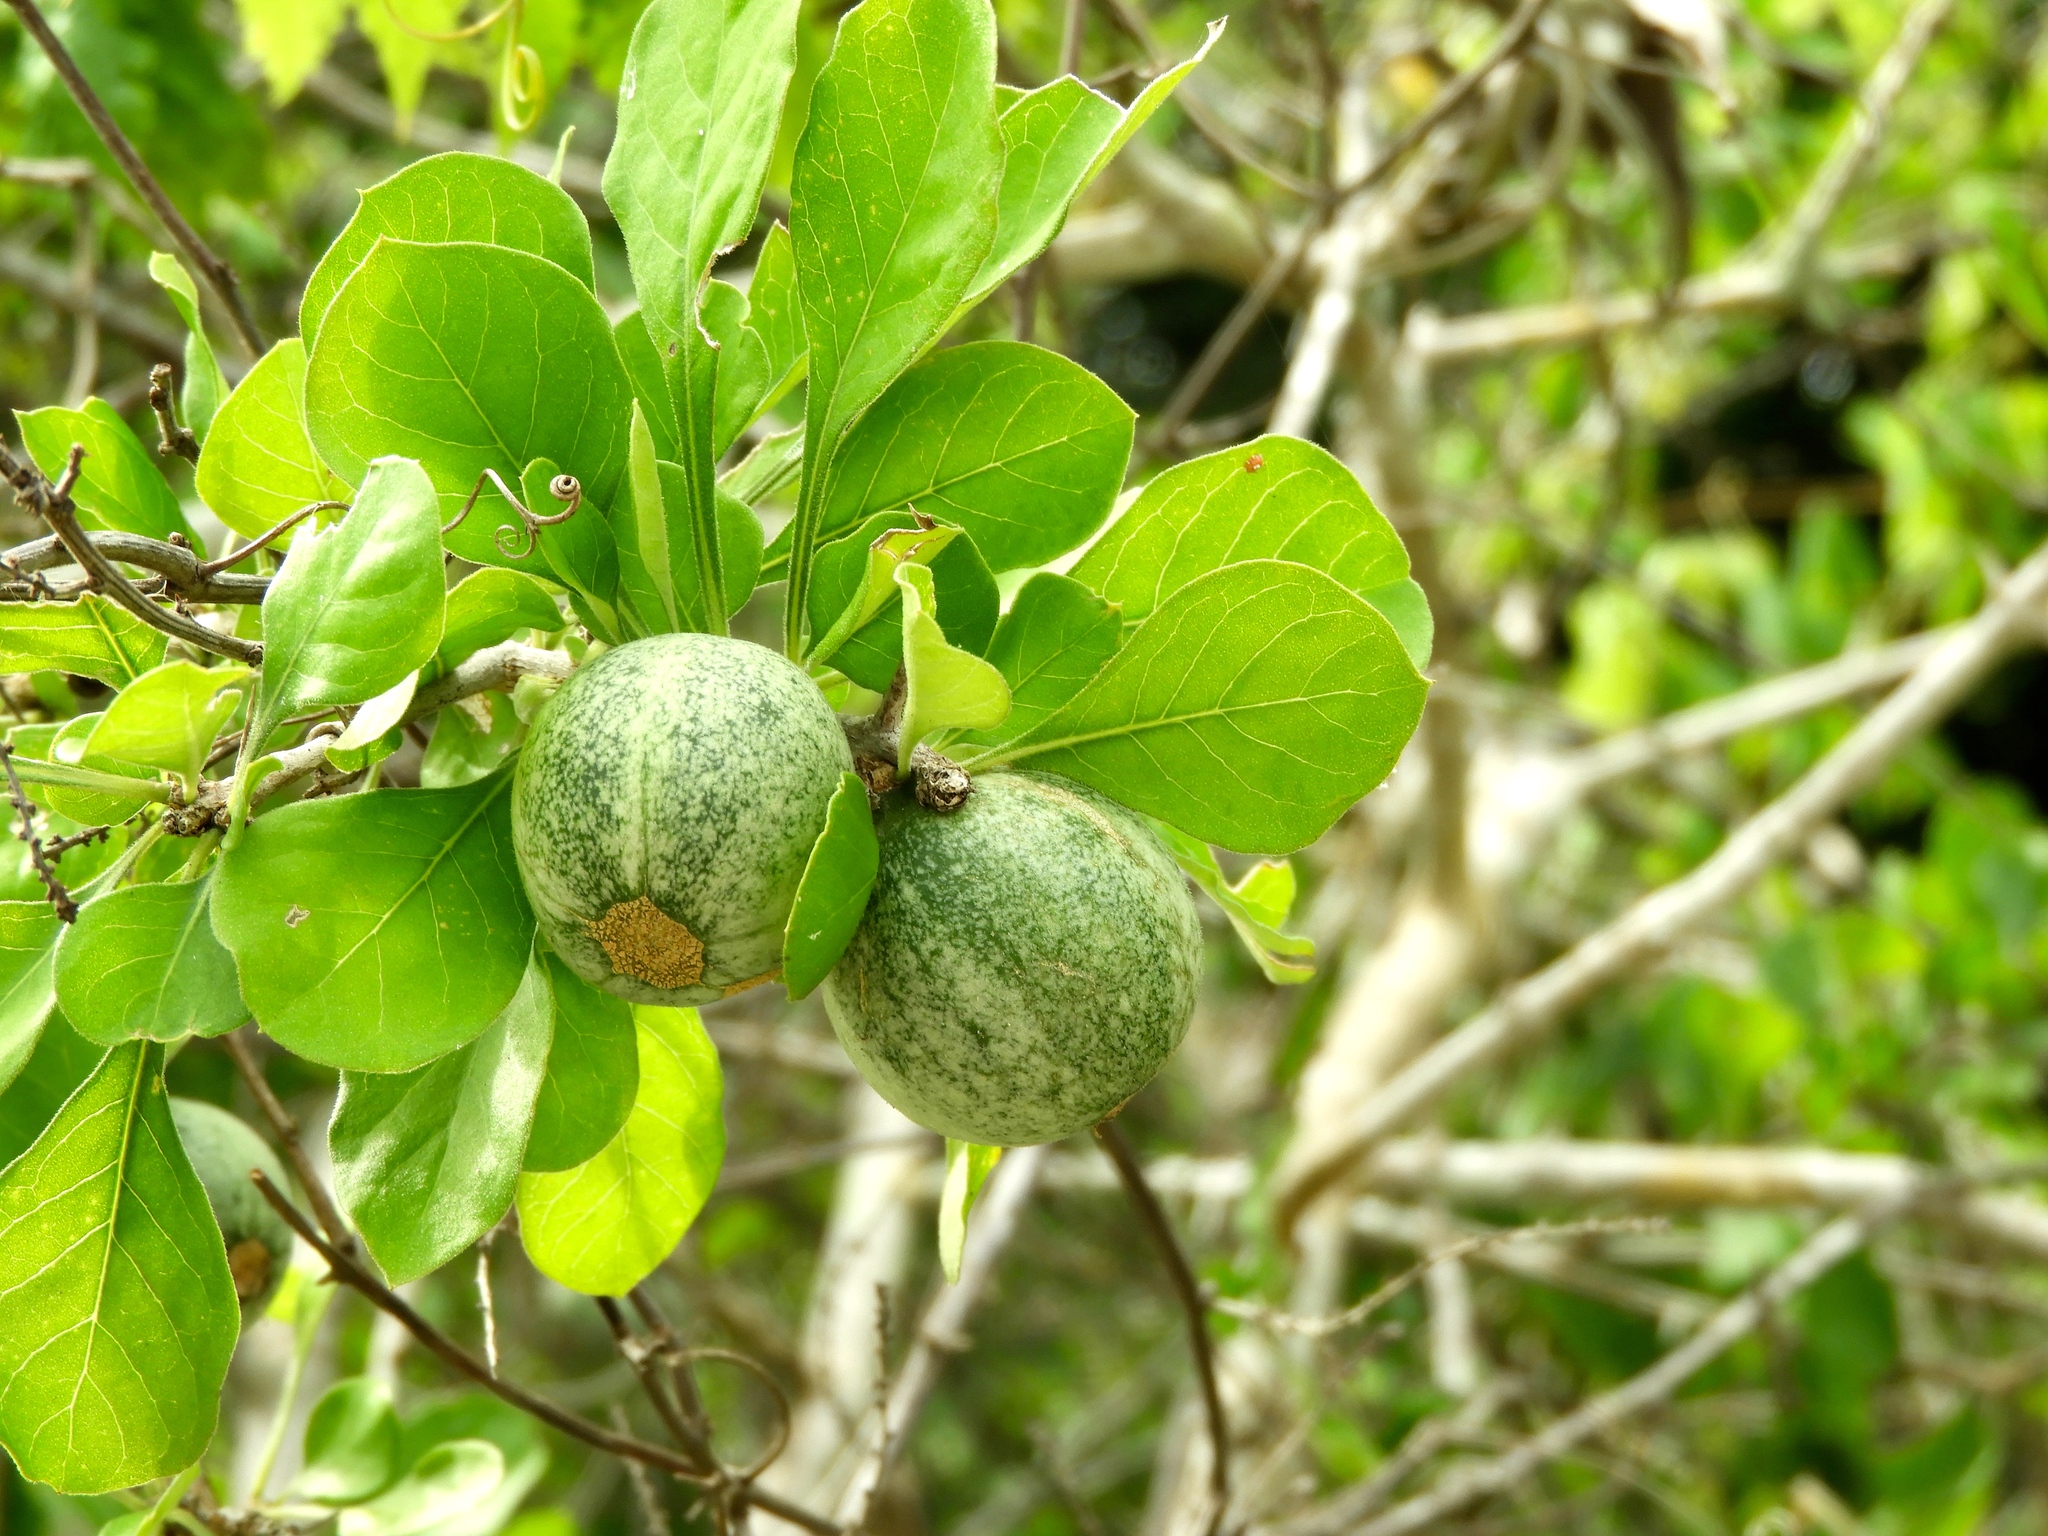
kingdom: Plantae
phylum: Tracheophyta
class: Magnoliopsida
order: Gentianales
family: Rubiaceae
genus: Randia
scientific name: Randia thurberi
